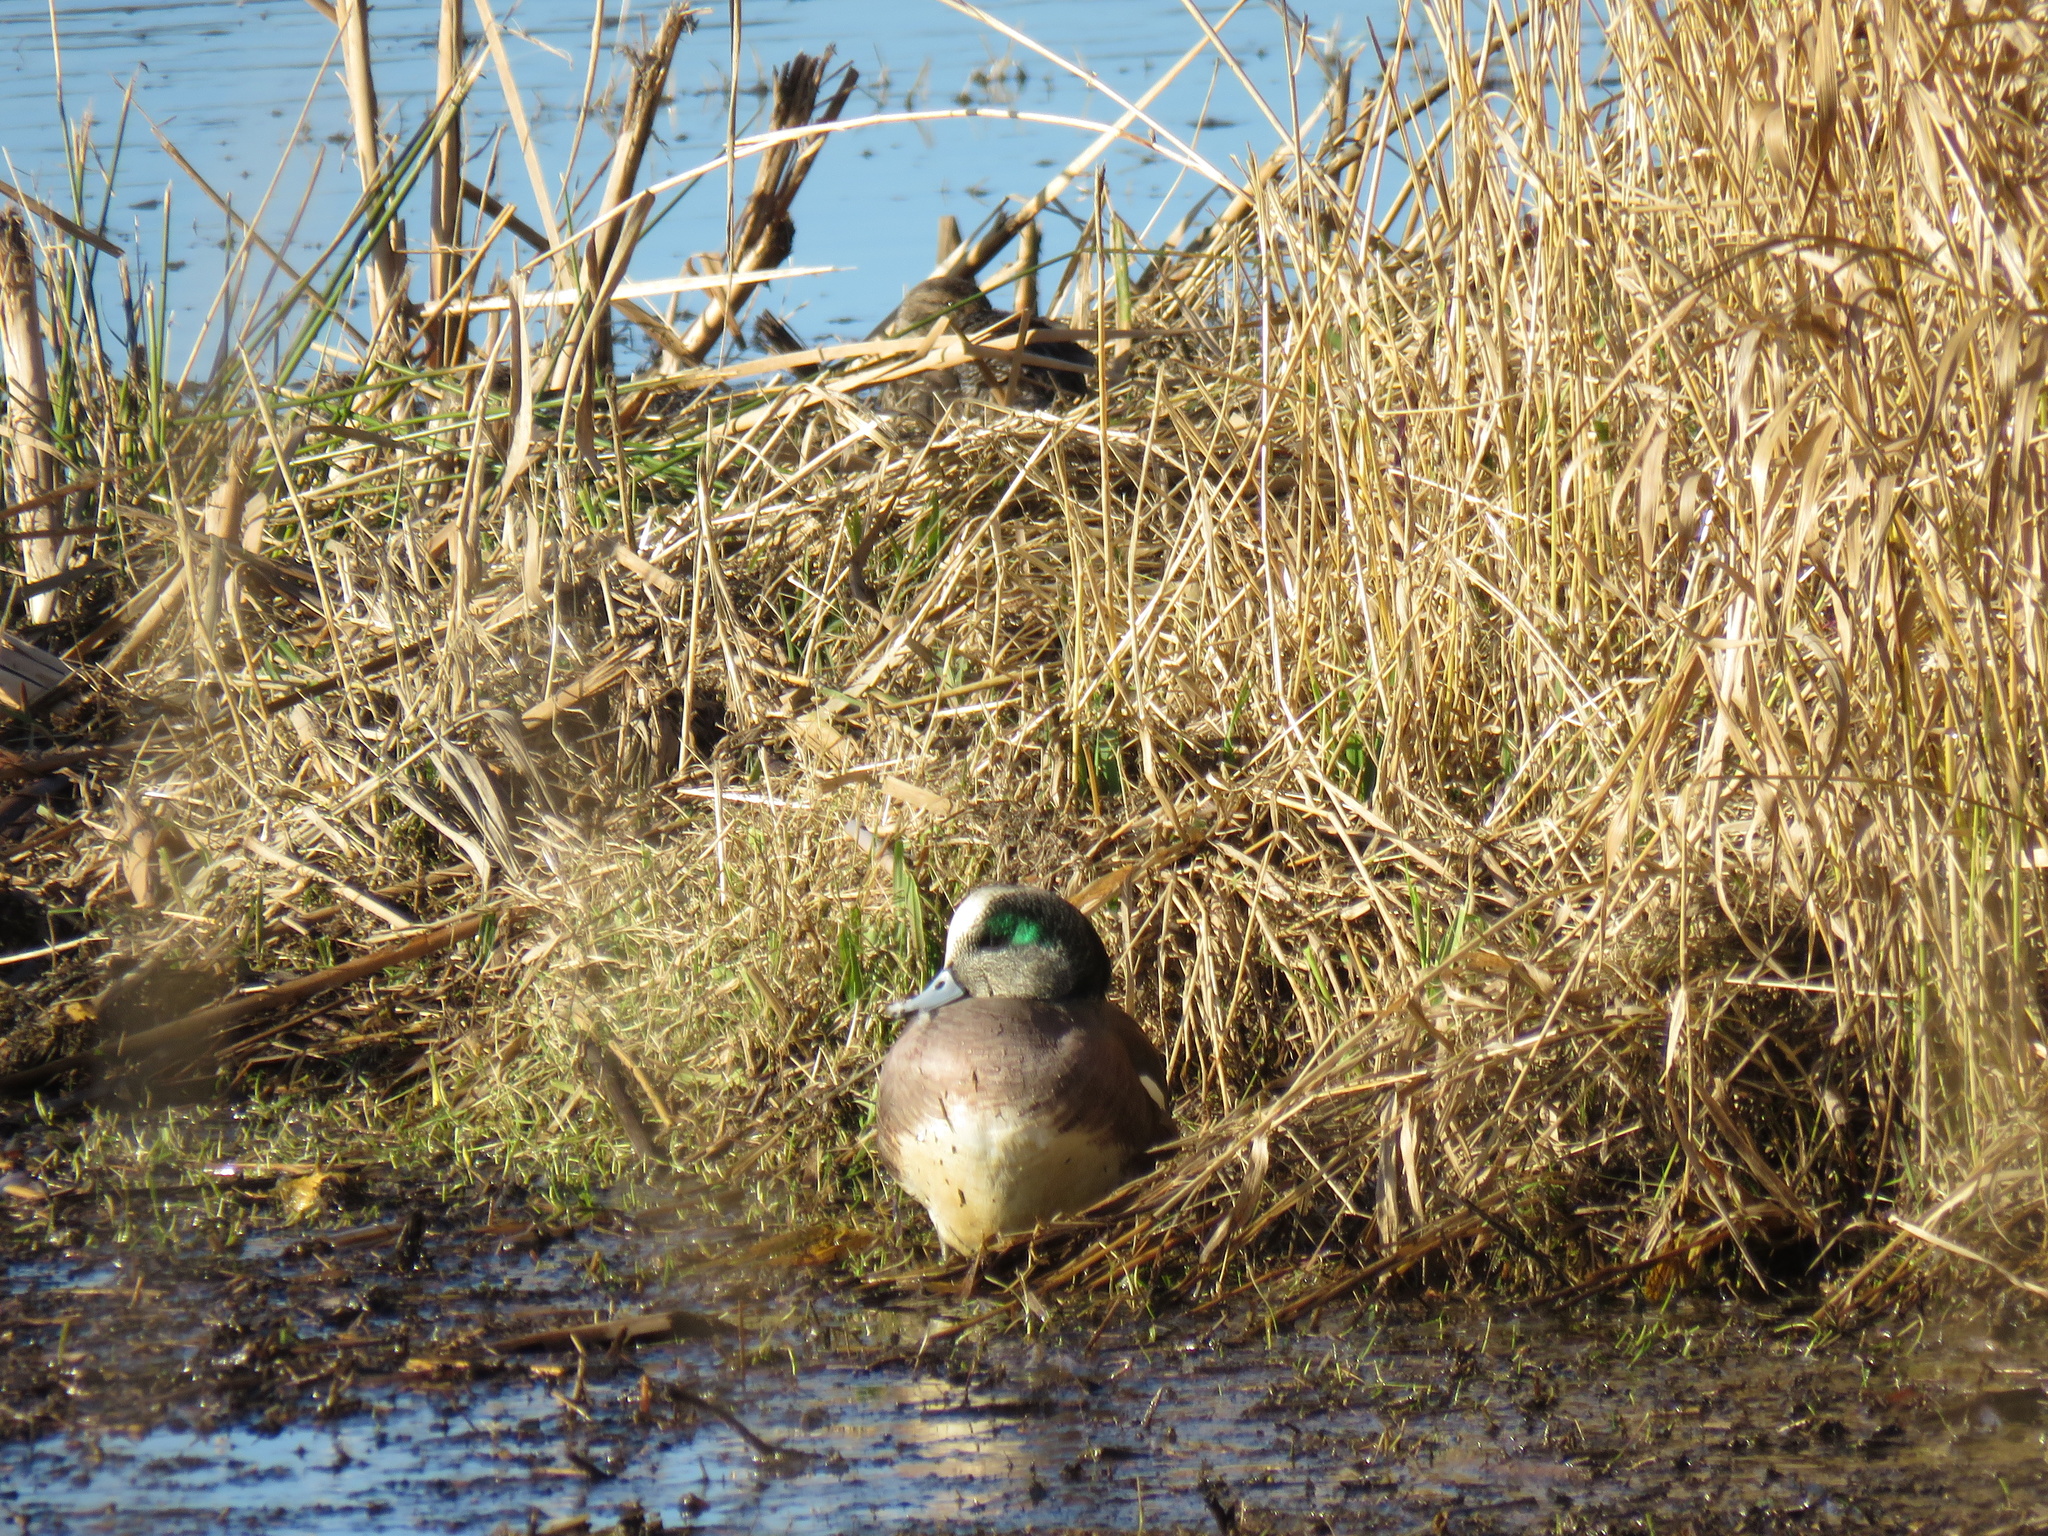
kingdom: Animalia
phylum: Chordata
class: Aves
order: Anseriformes
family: Anatidae
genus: Mareca
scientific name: Mareca americana
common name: American wigeon
